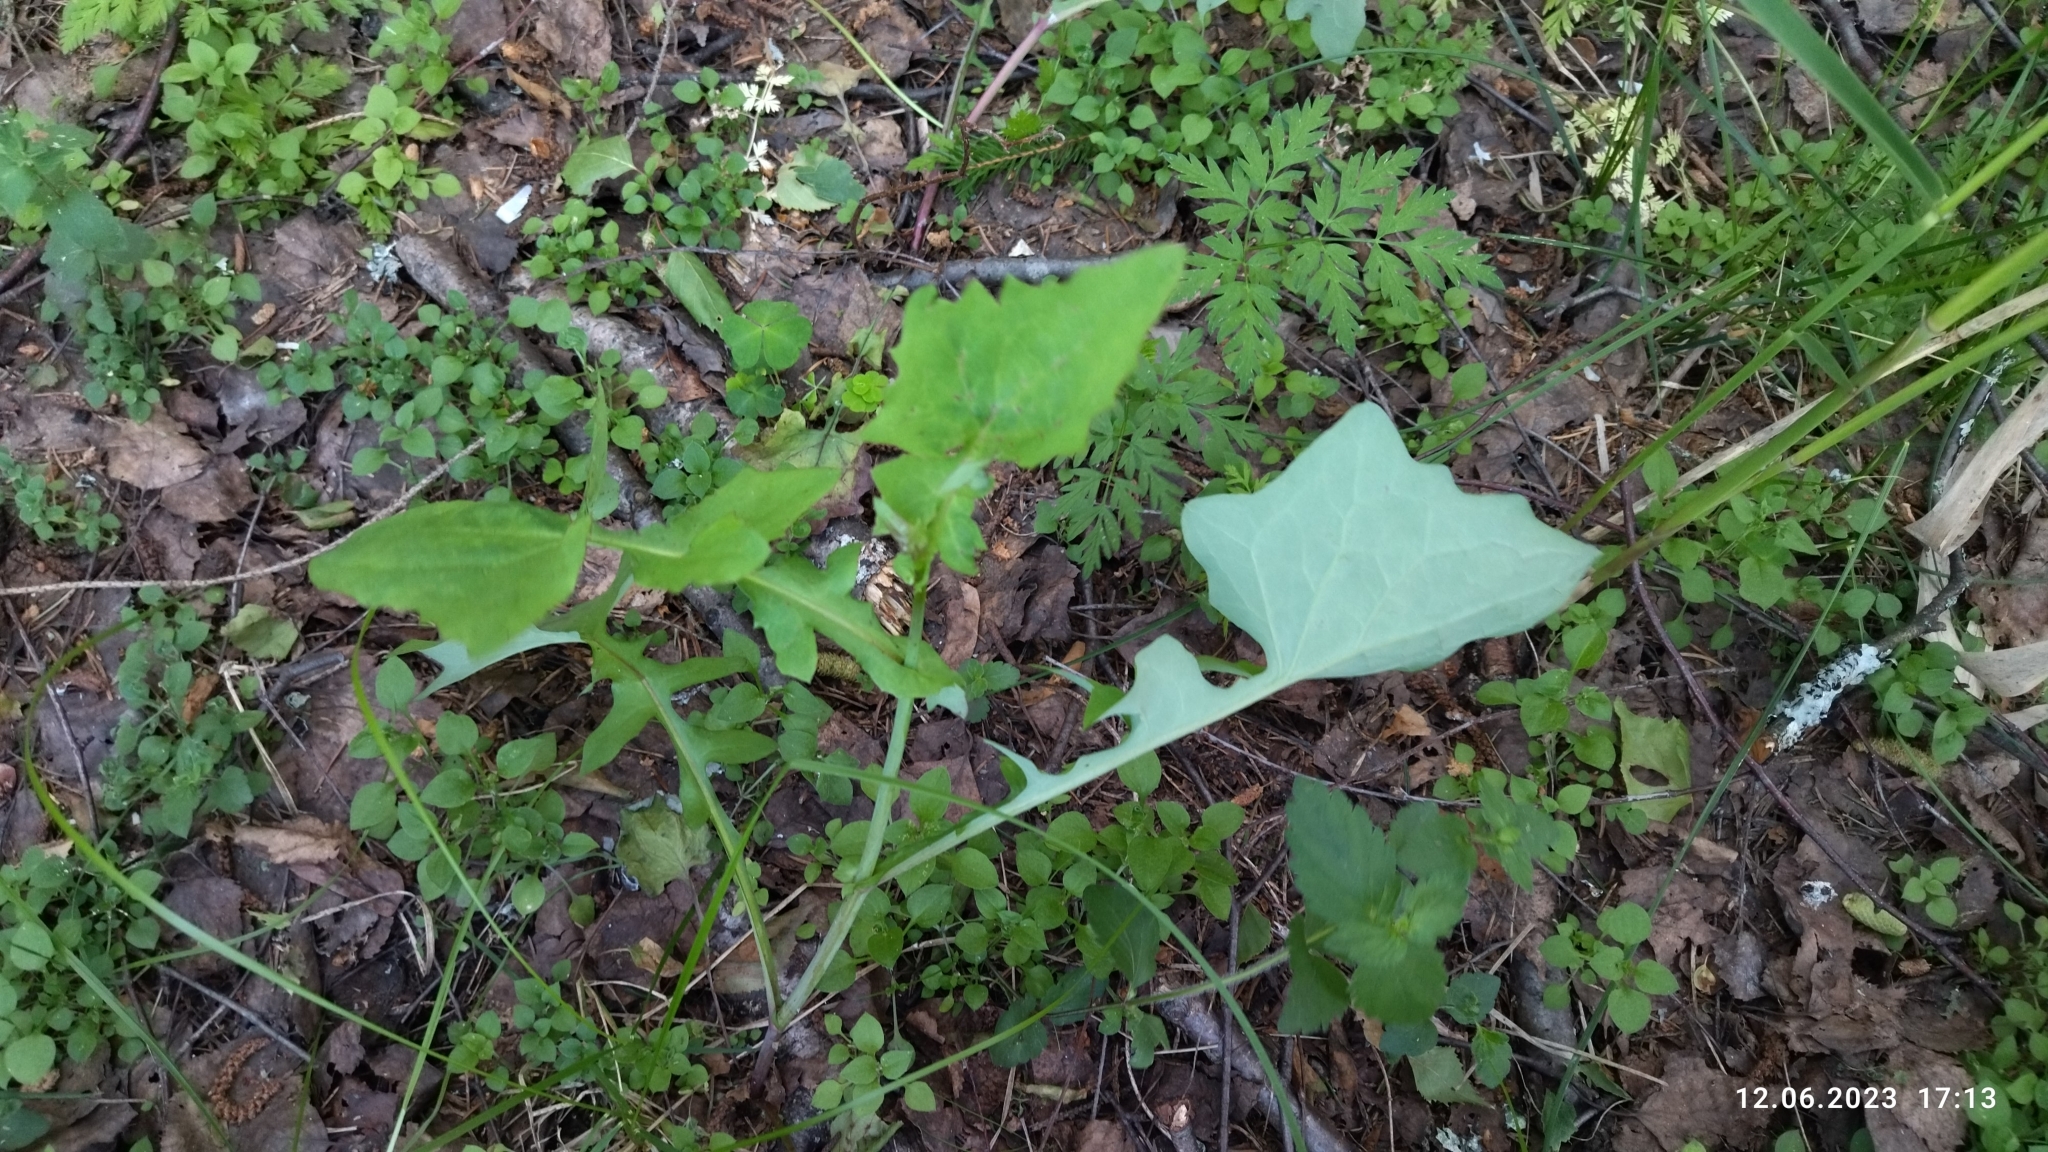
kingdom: Plantae
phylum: Tracheophyta
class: Magnoliopsida
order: Asterales
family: Asteraceae
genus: Mycelis
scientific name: Mycelis muralis
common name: Wall lettuce
